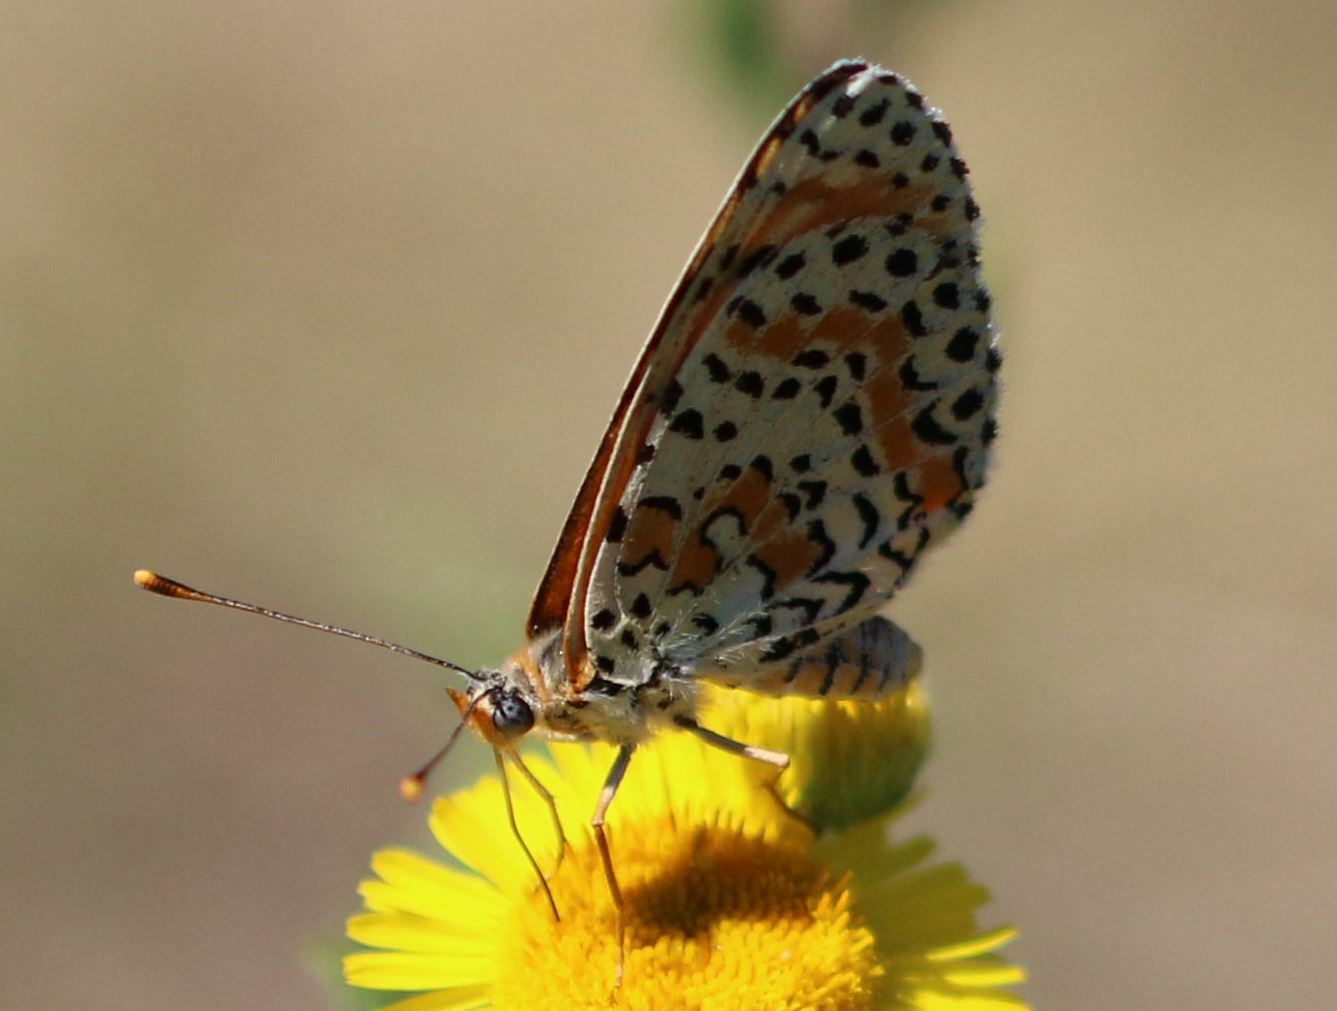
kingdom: Animalia
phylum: Arthropoda
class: Insecta
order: Lepidoptera
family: Nymphalidae
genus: Melitaea
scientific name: Melitaea didyma
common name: Spotted fritillary
